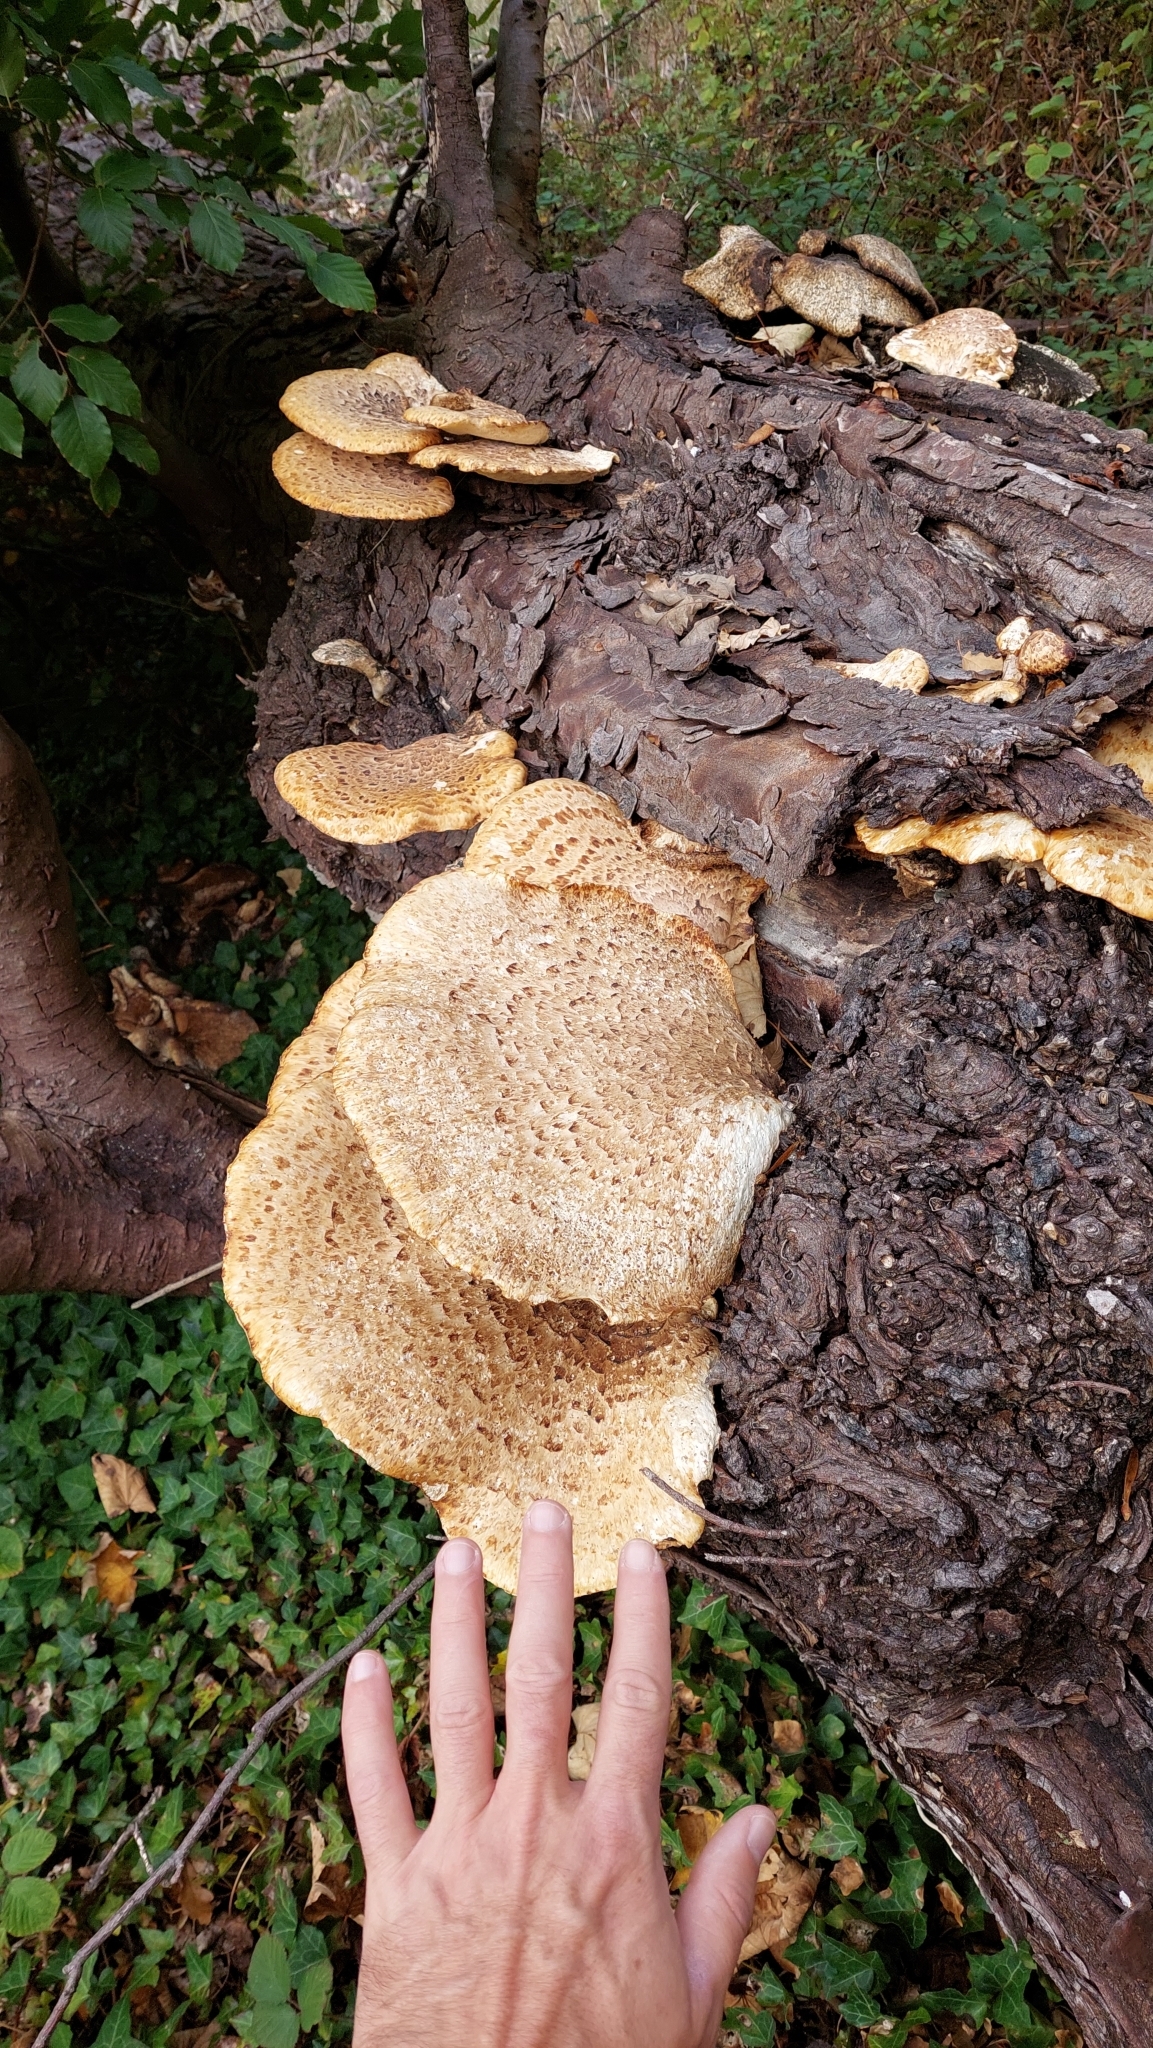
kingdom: Fungi
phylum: Basidiomycota
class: Agaricomycetes
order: Polyporales
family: Polyporaceae
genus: Cerioporus
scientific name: Cerioporus squamosus
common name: Dryad's saddle
